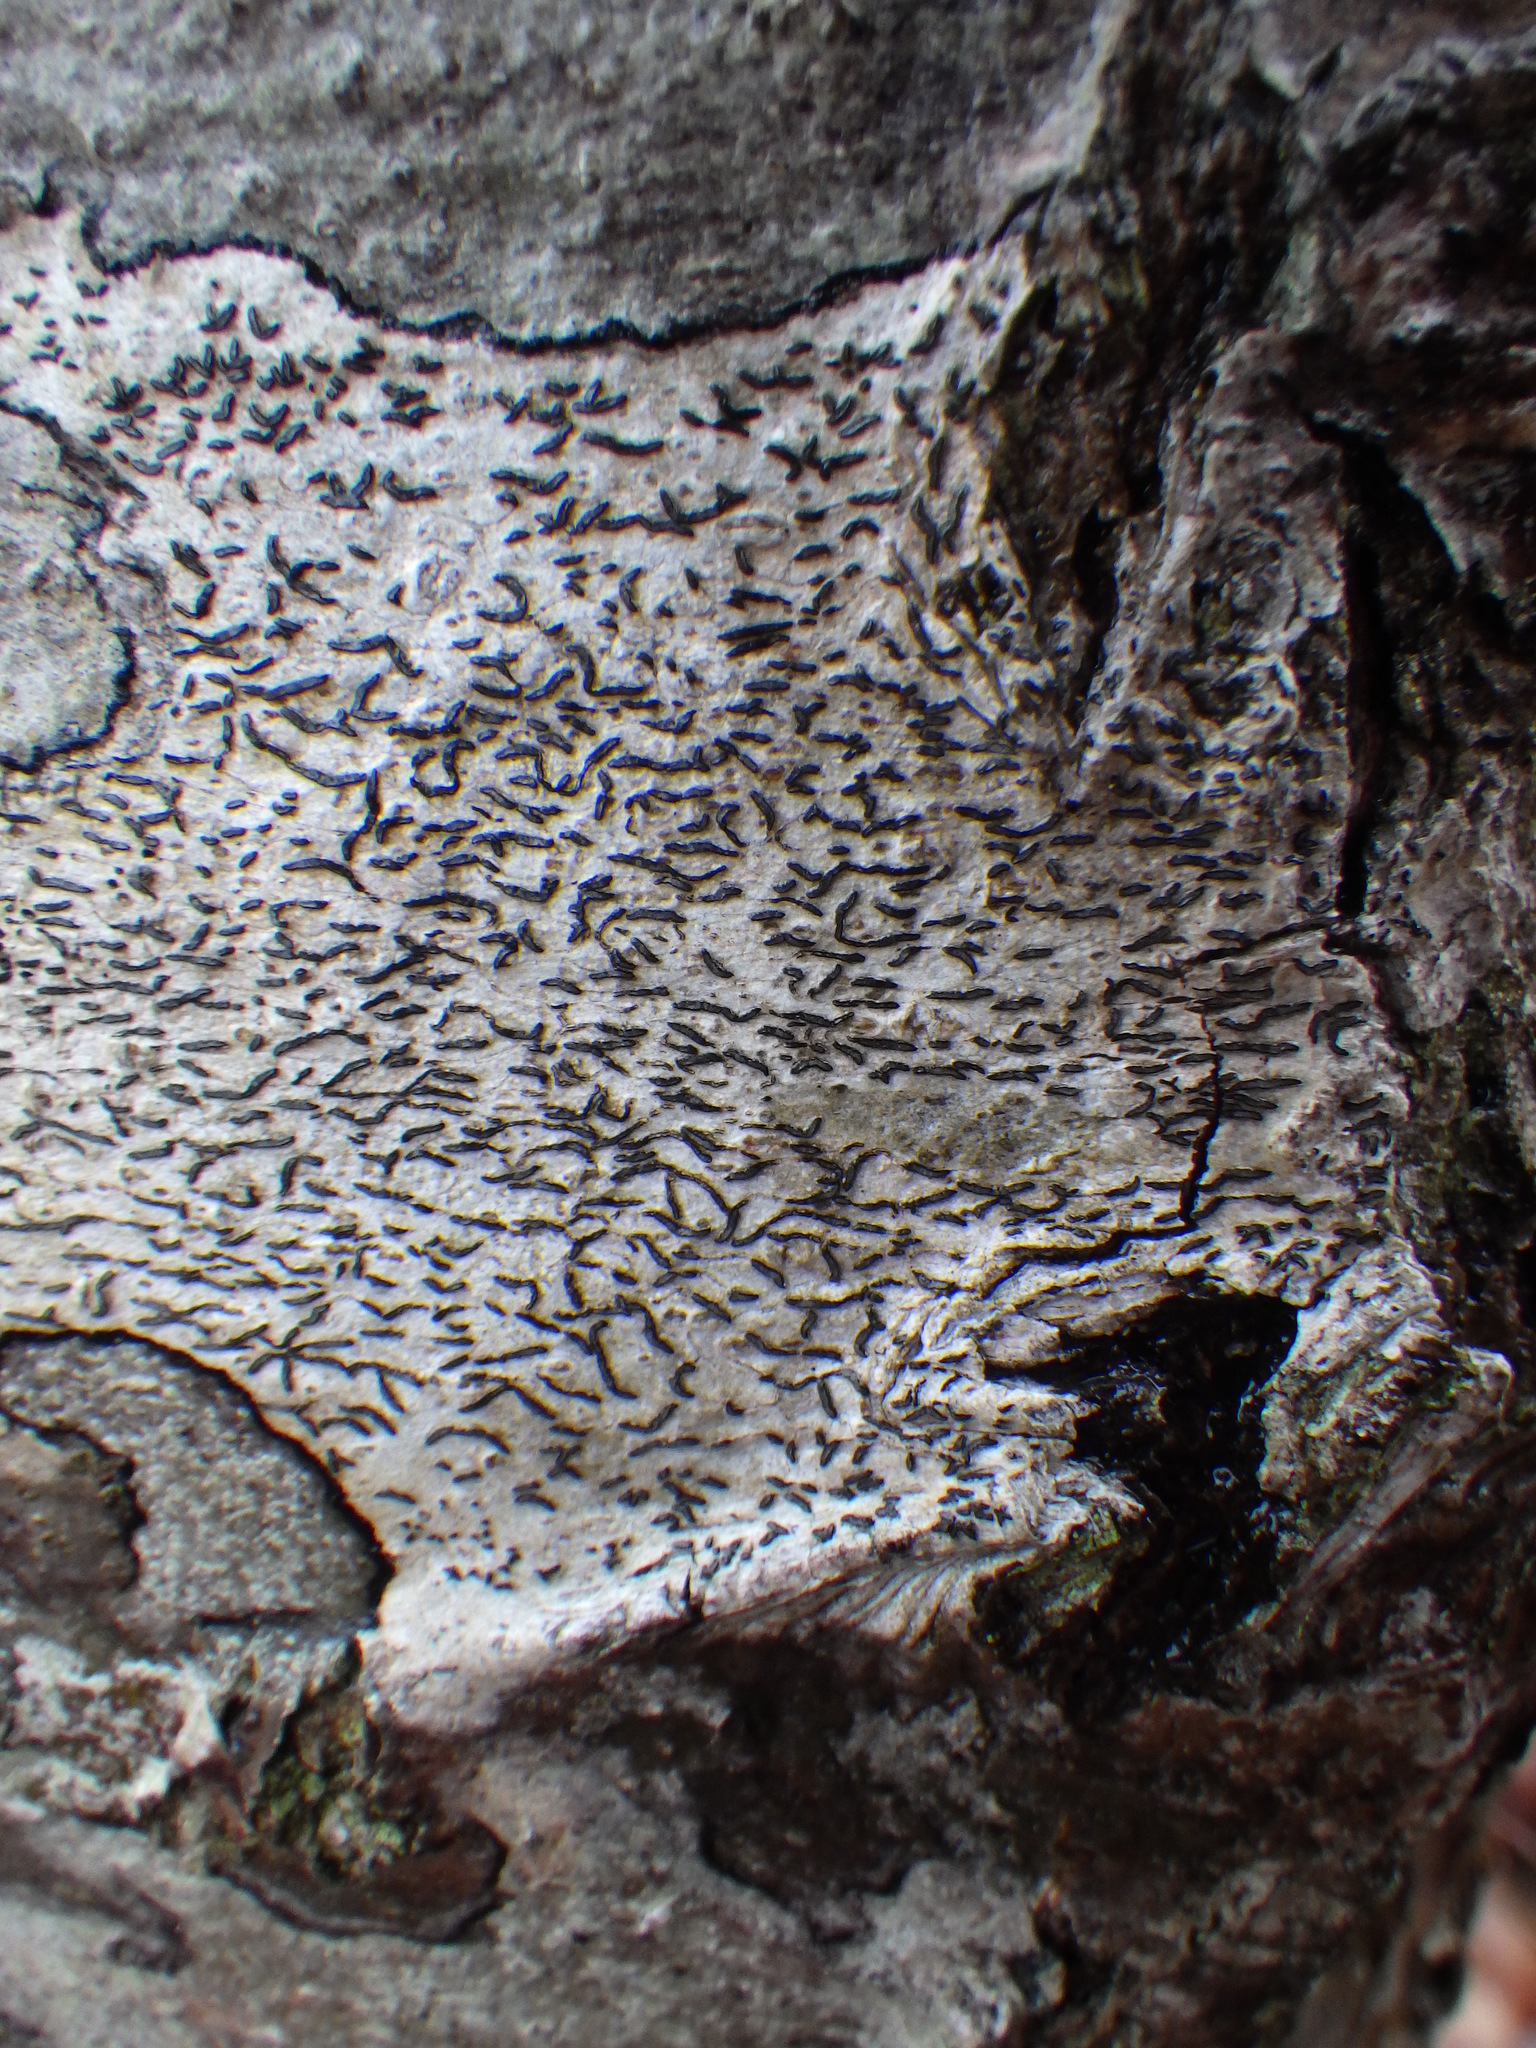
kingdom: Fungi
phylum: Ascomycota
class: Lecanoromycetes
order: Ostropales
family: Graphidaceae
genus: Graphis
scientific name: Graphis scripta
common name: Script lichen
